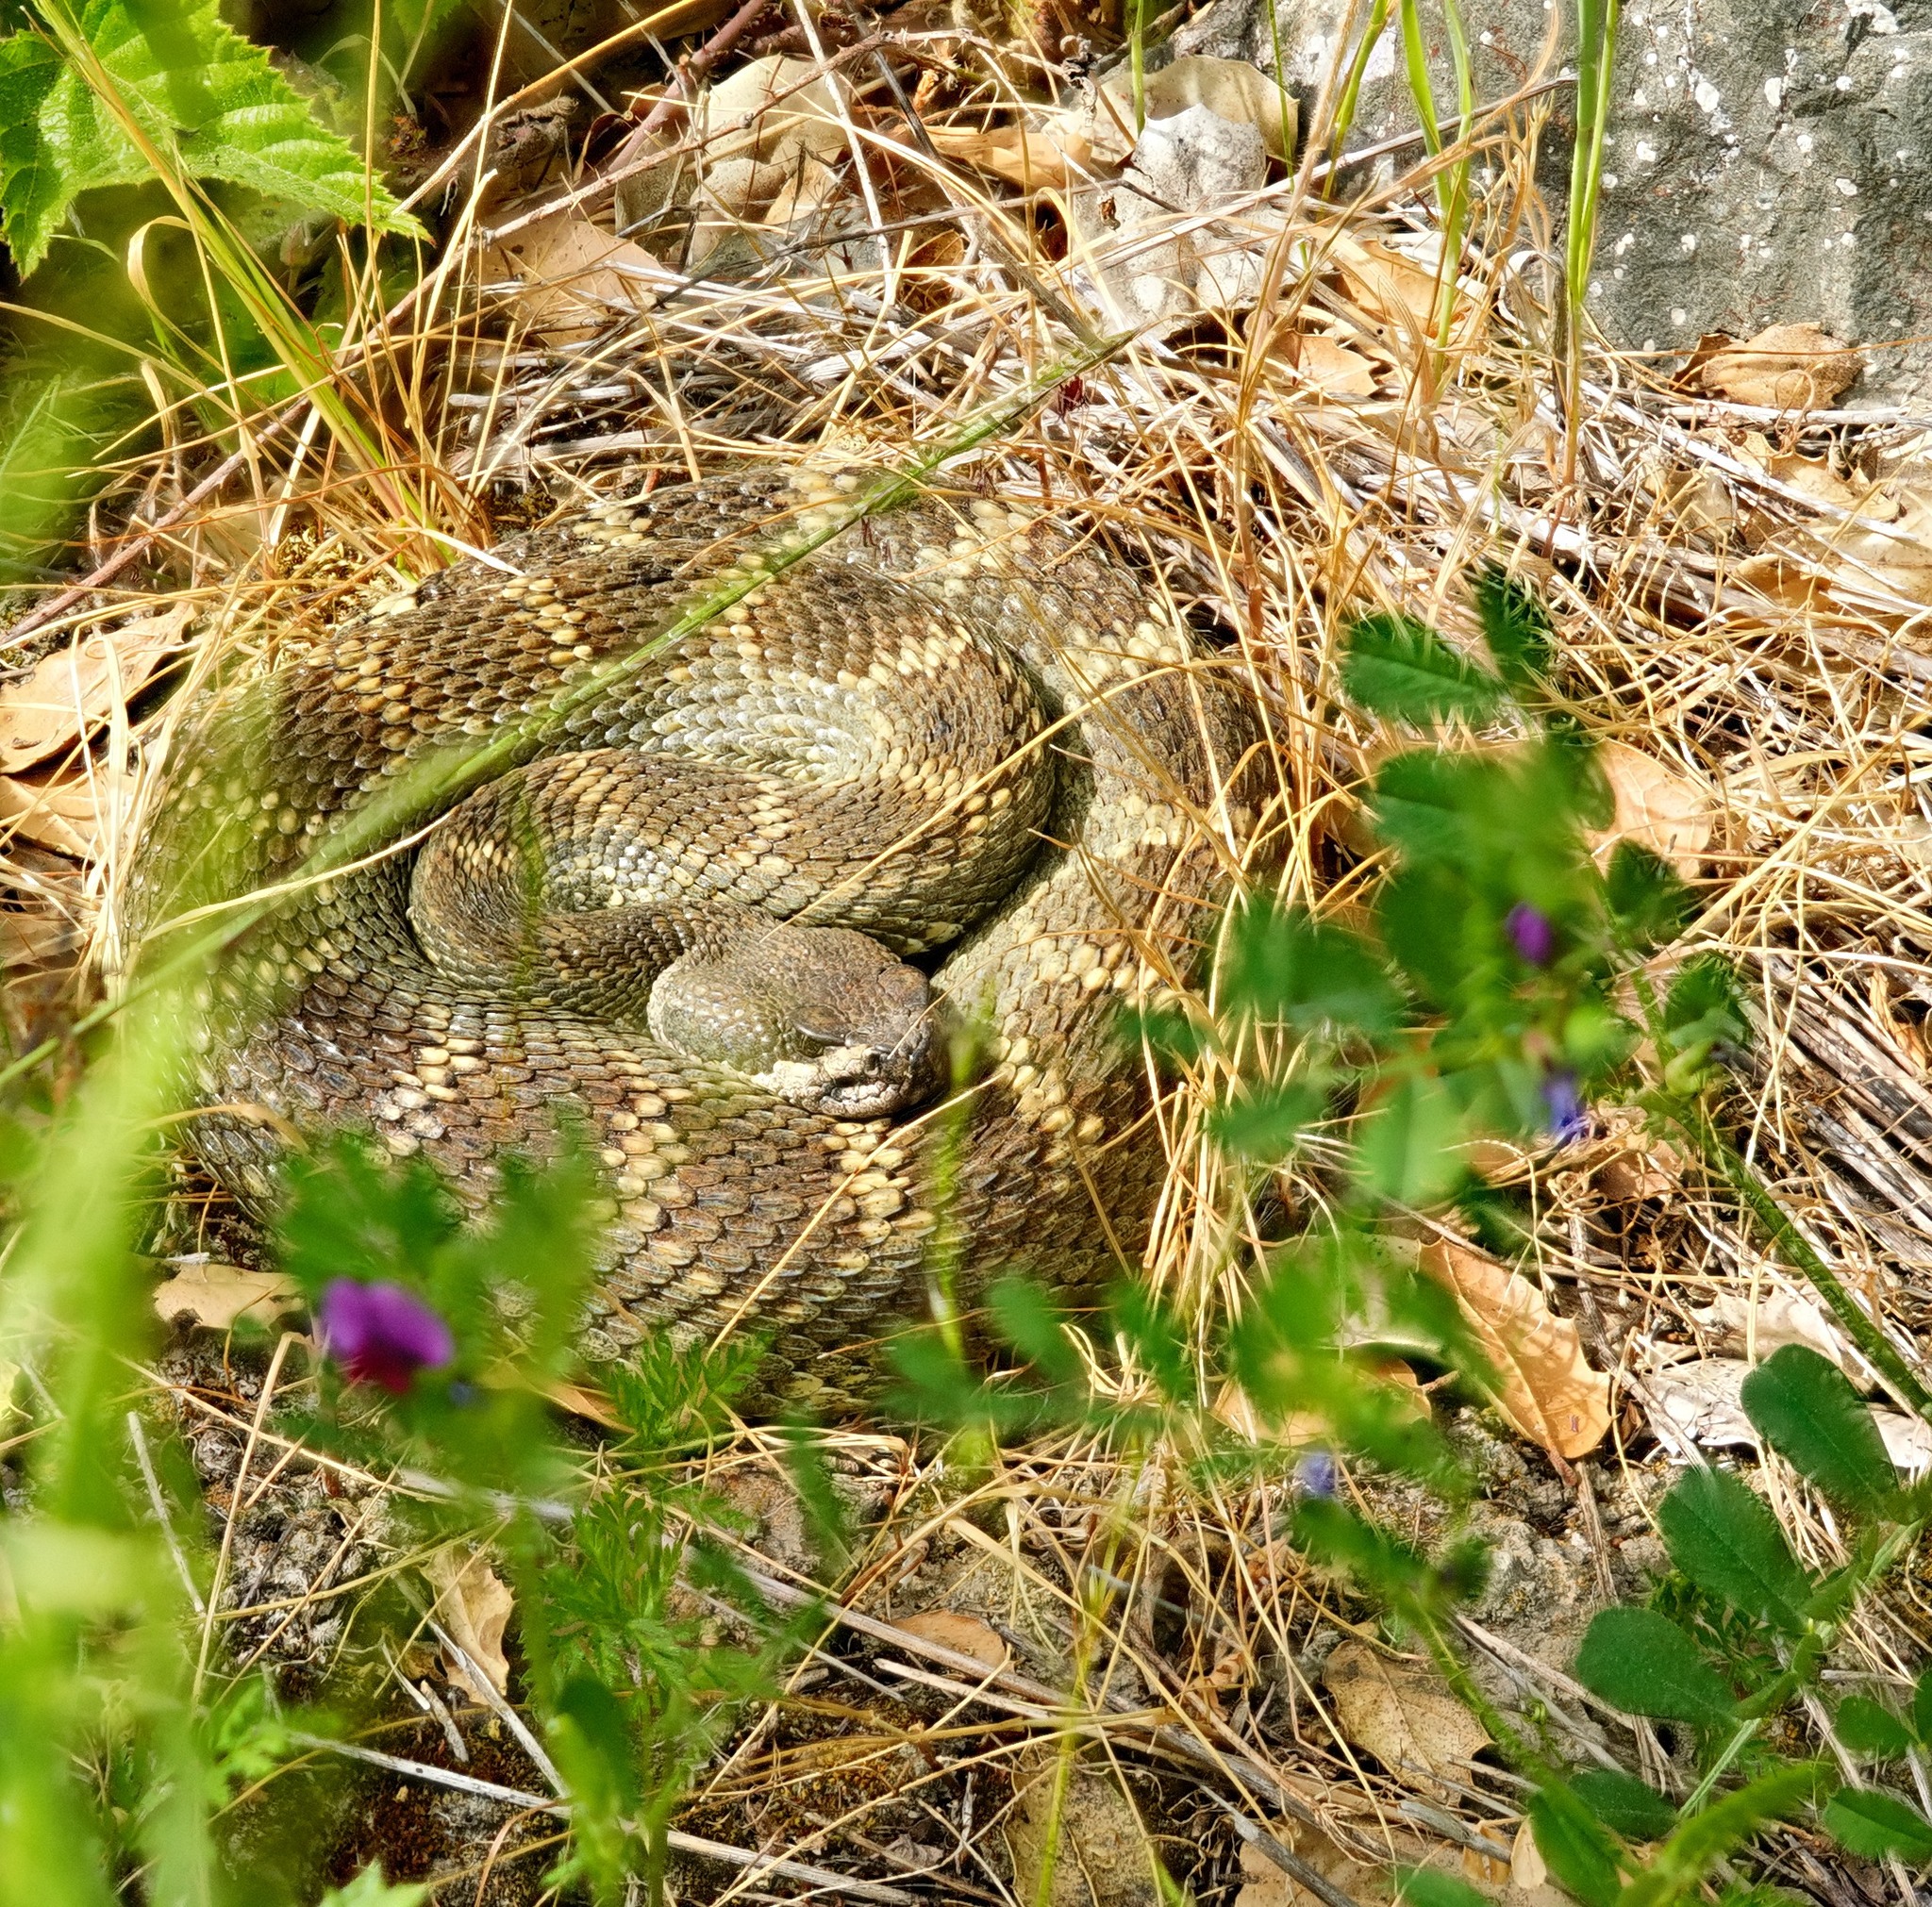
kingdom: Animalia
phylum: Chordata
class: Squamata
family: Viperidae
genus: Crotalus
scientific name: Crotalus oreganus
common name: Abyssus
